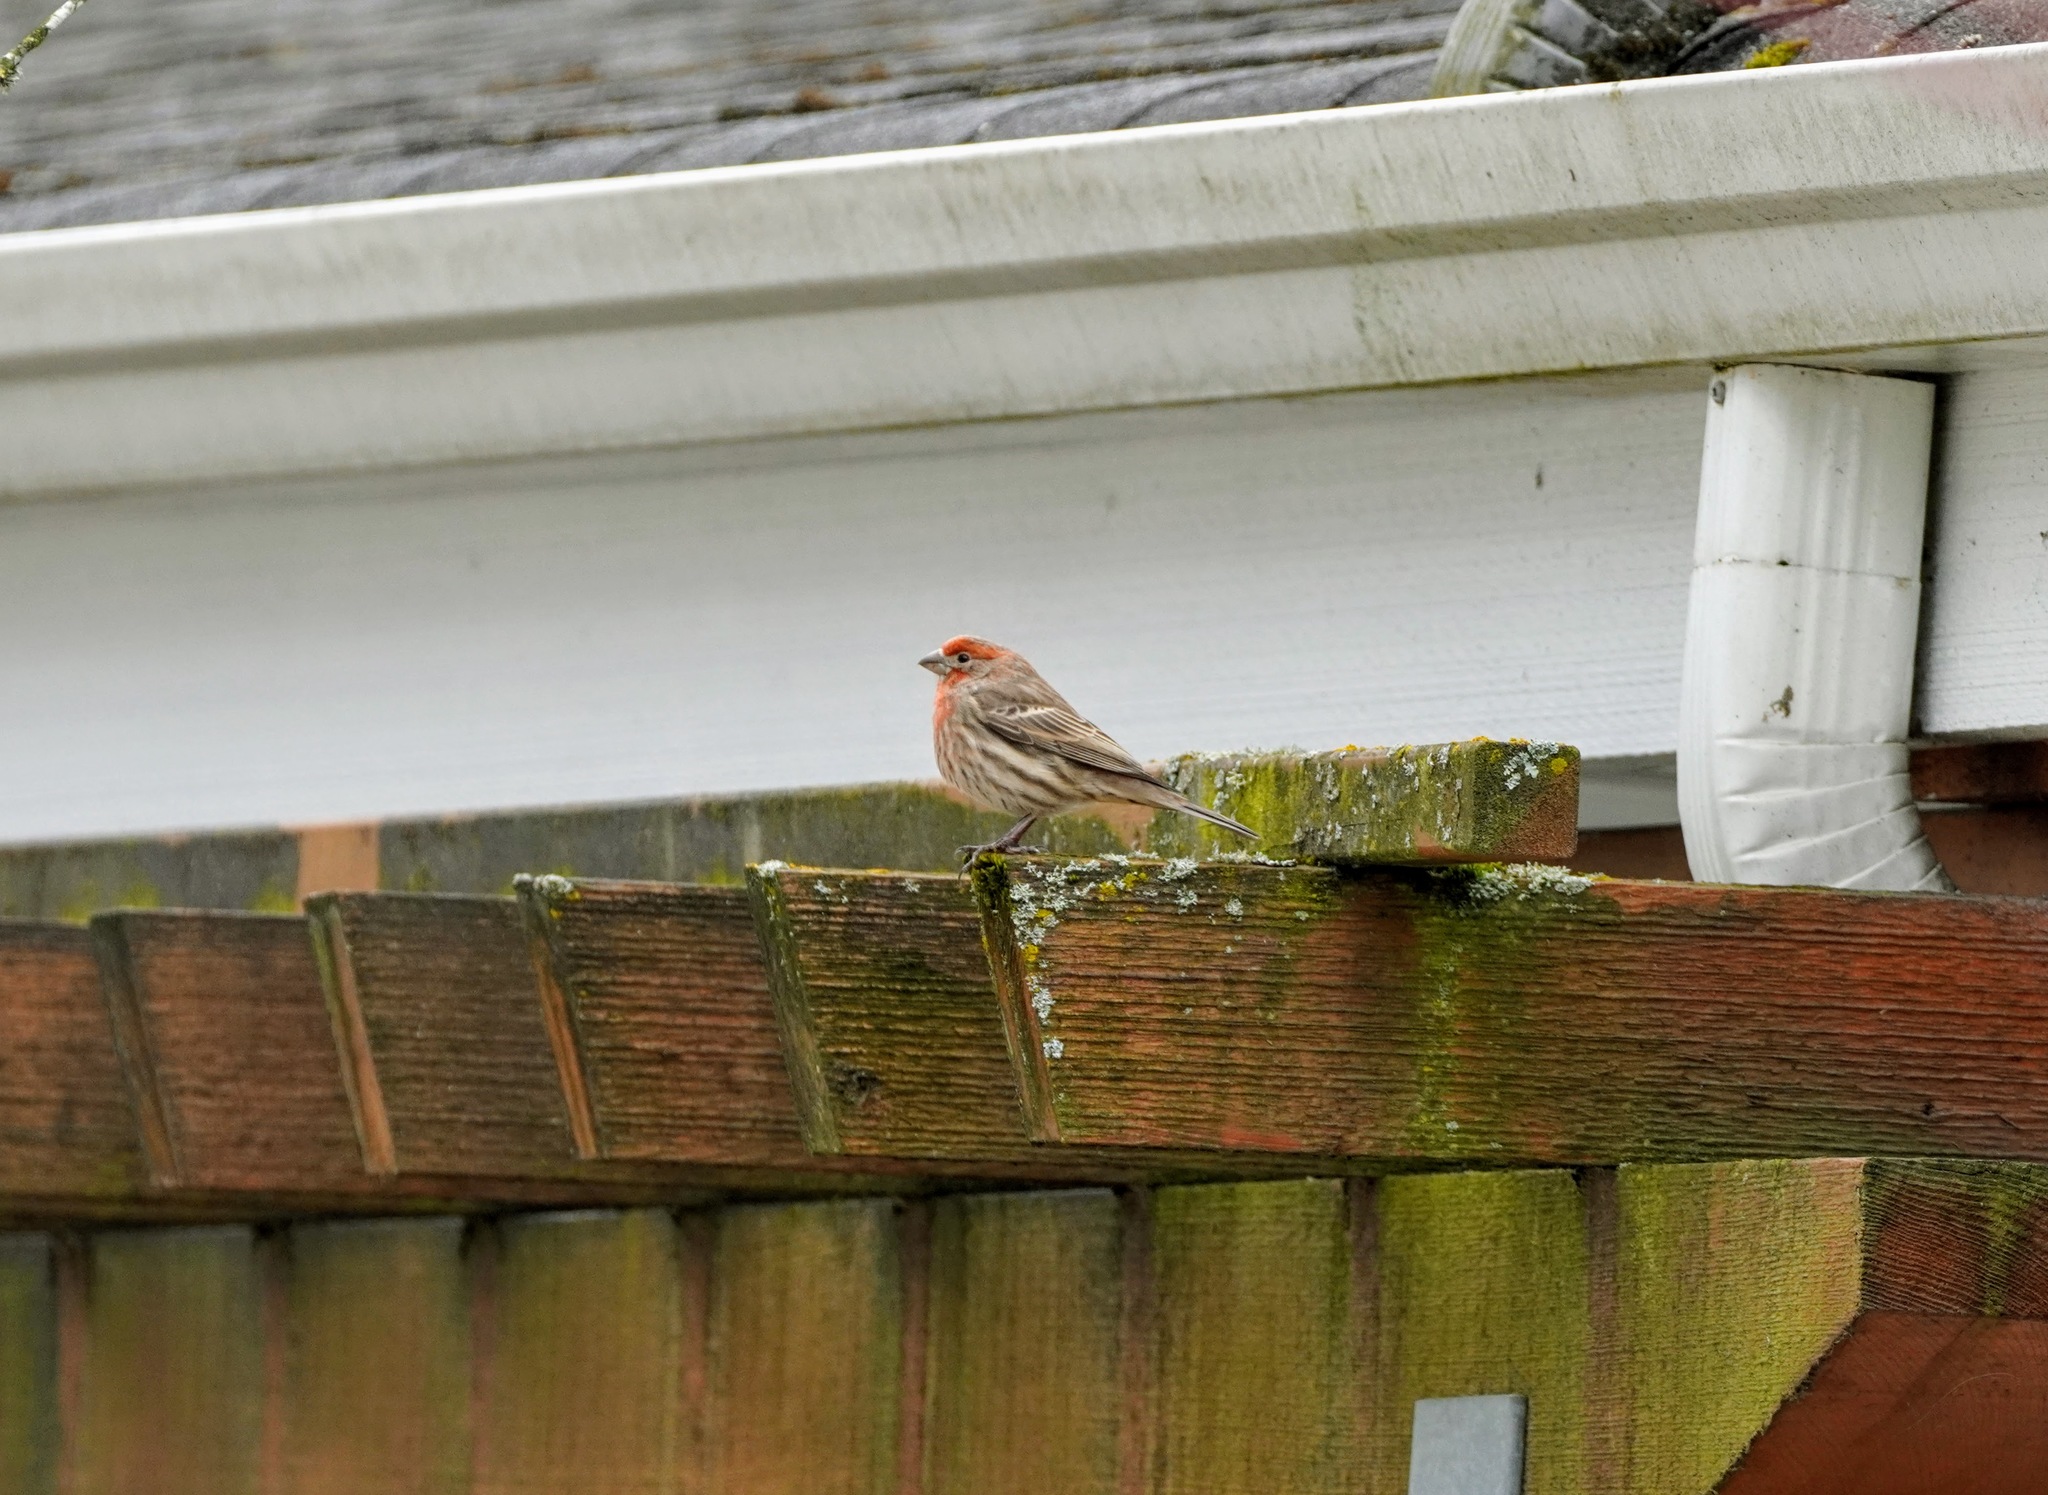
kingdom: Animalia
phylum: Chordata
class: Aves
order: Passeriformes
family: Fringillidae
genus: Haemorhous
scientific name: Haemorhous mexicanus
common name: House finch
